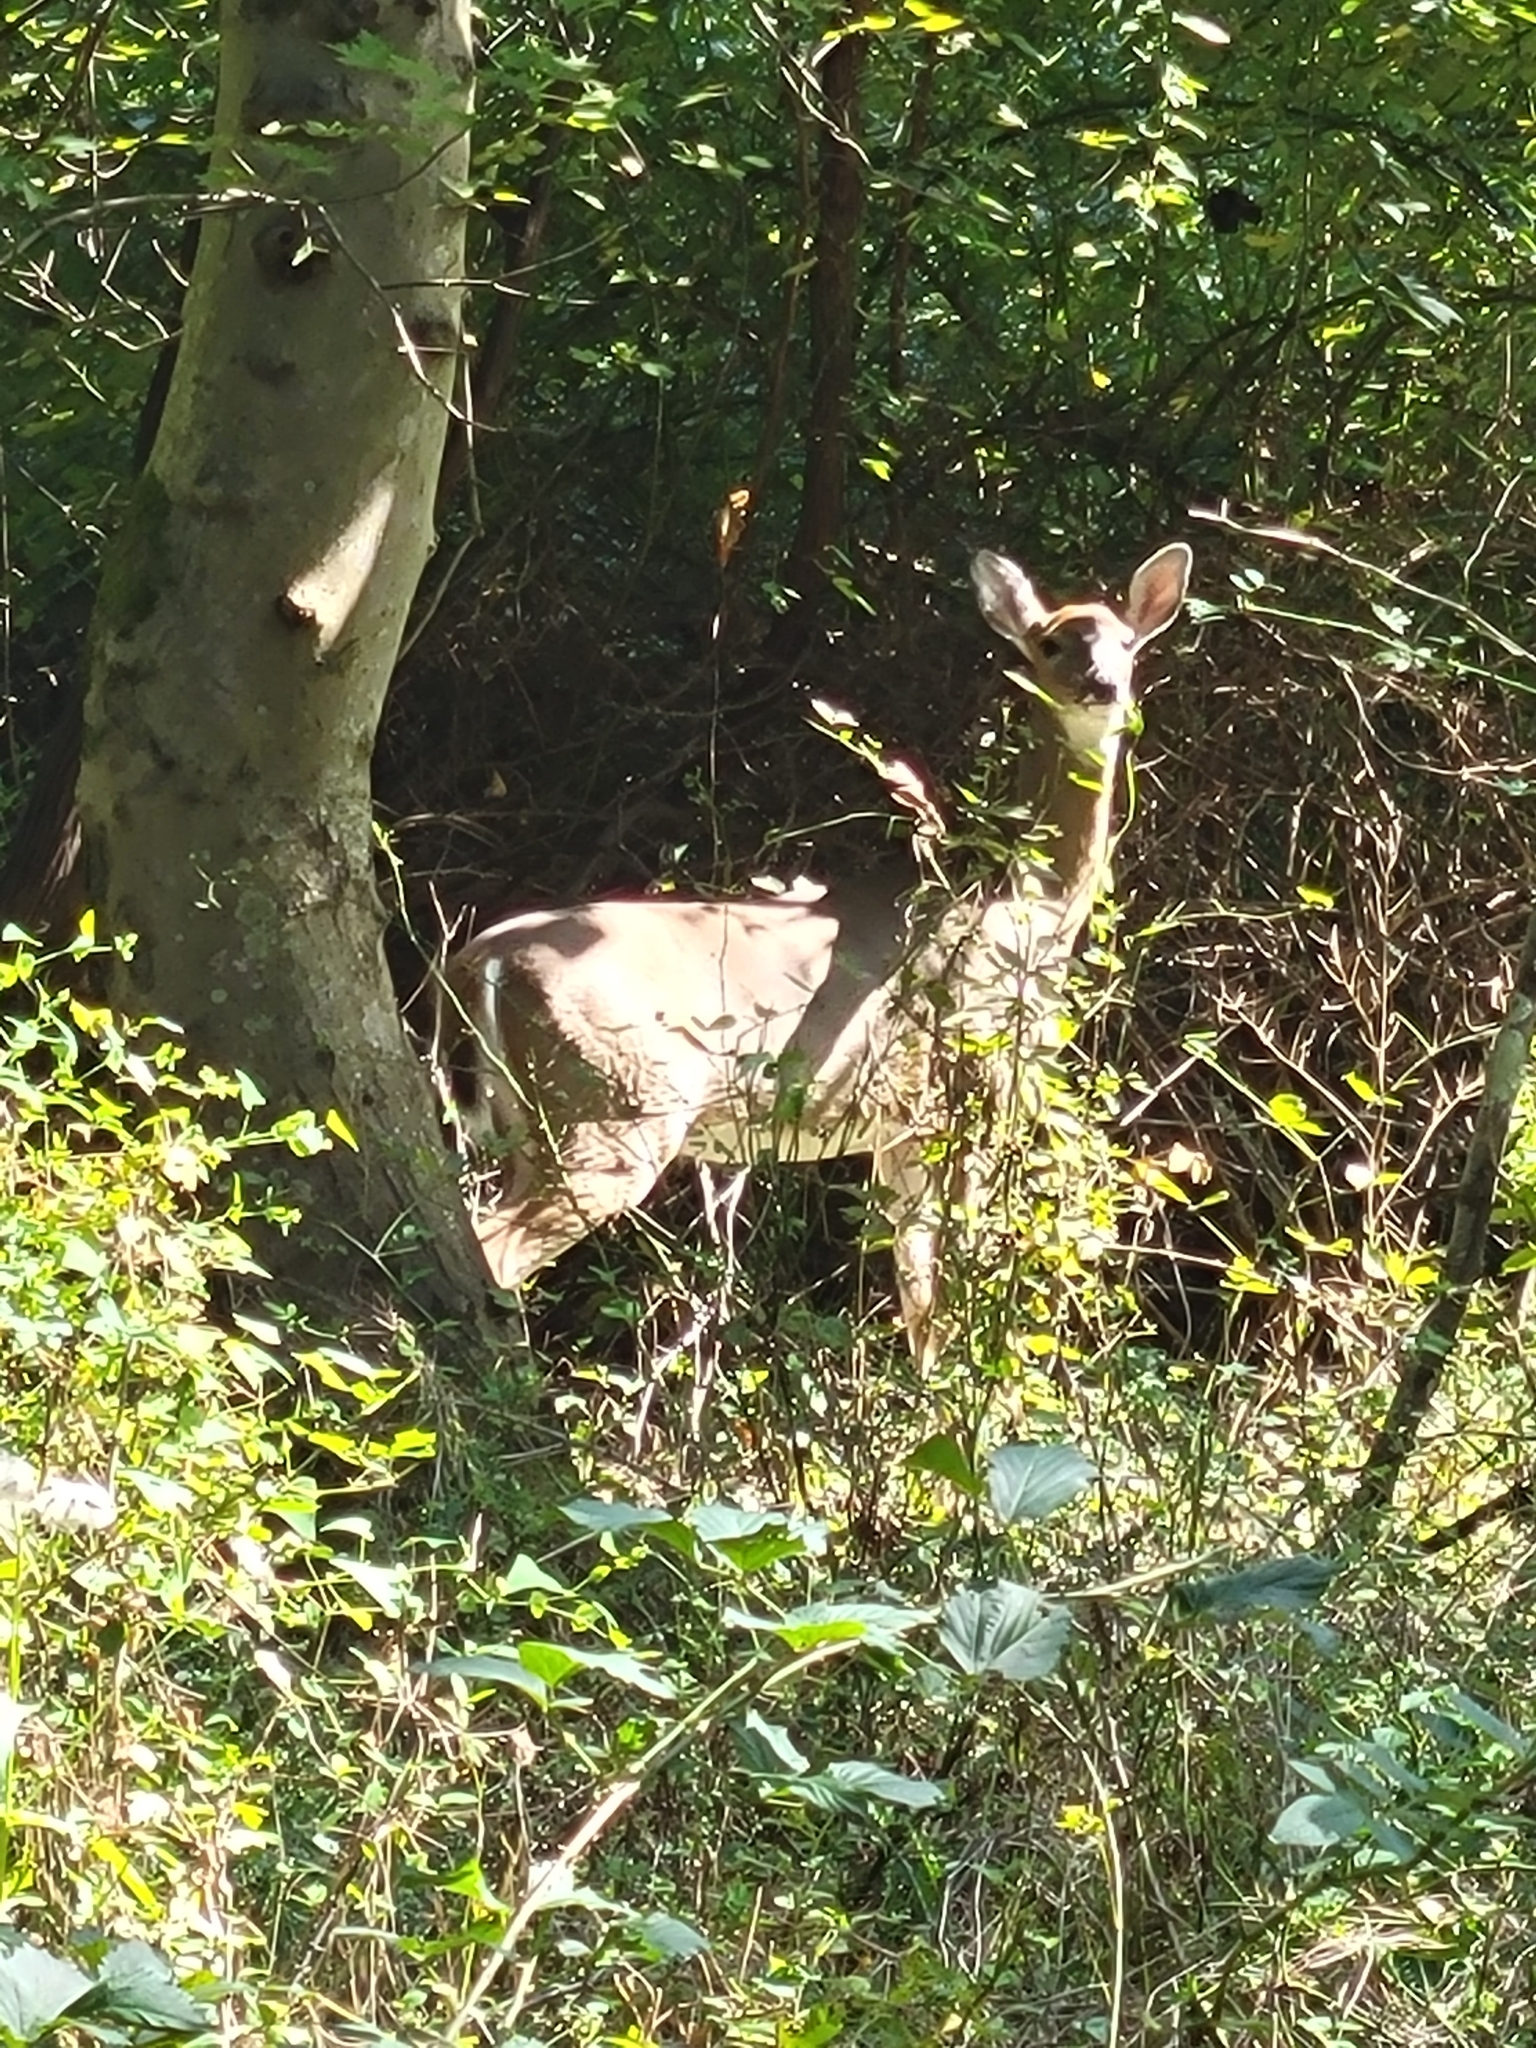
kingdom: Animalia
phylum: Chordata
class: Mammalia
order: Artiodactyla
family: Cervidae
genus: Odocoileus
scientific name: Odocoileus virginianus
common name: White-tailed deer
